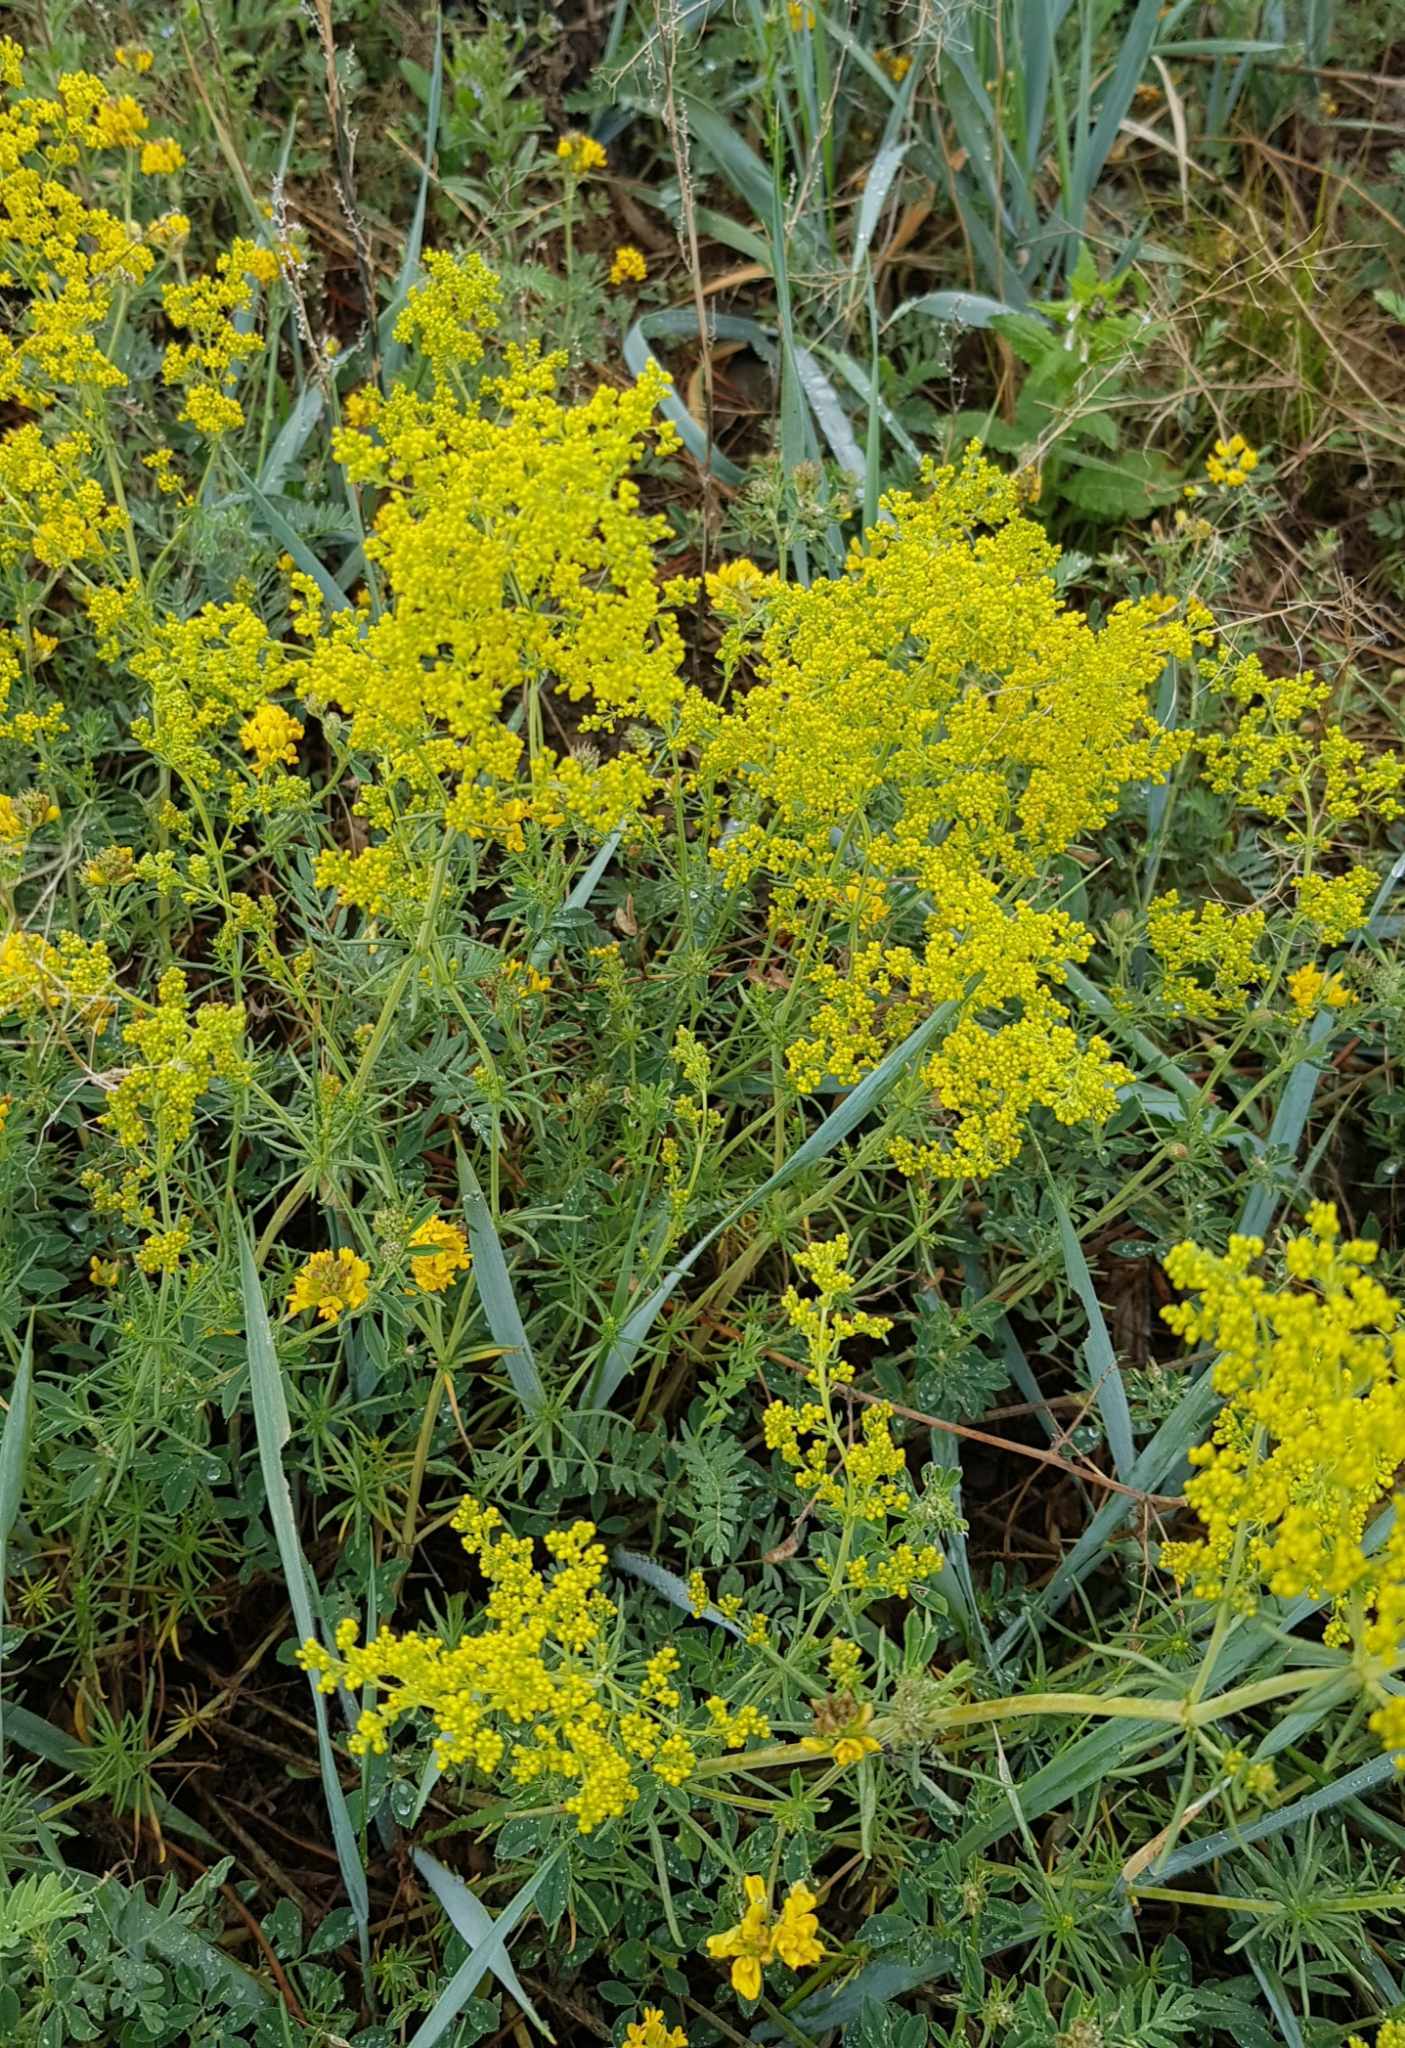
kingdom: Plantae
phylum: Tracheophyta
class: Magnoliopsida
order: Gentianales
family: Rubiaceae
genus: Galium
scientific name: Galium verum
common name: Lady's bedstraw
